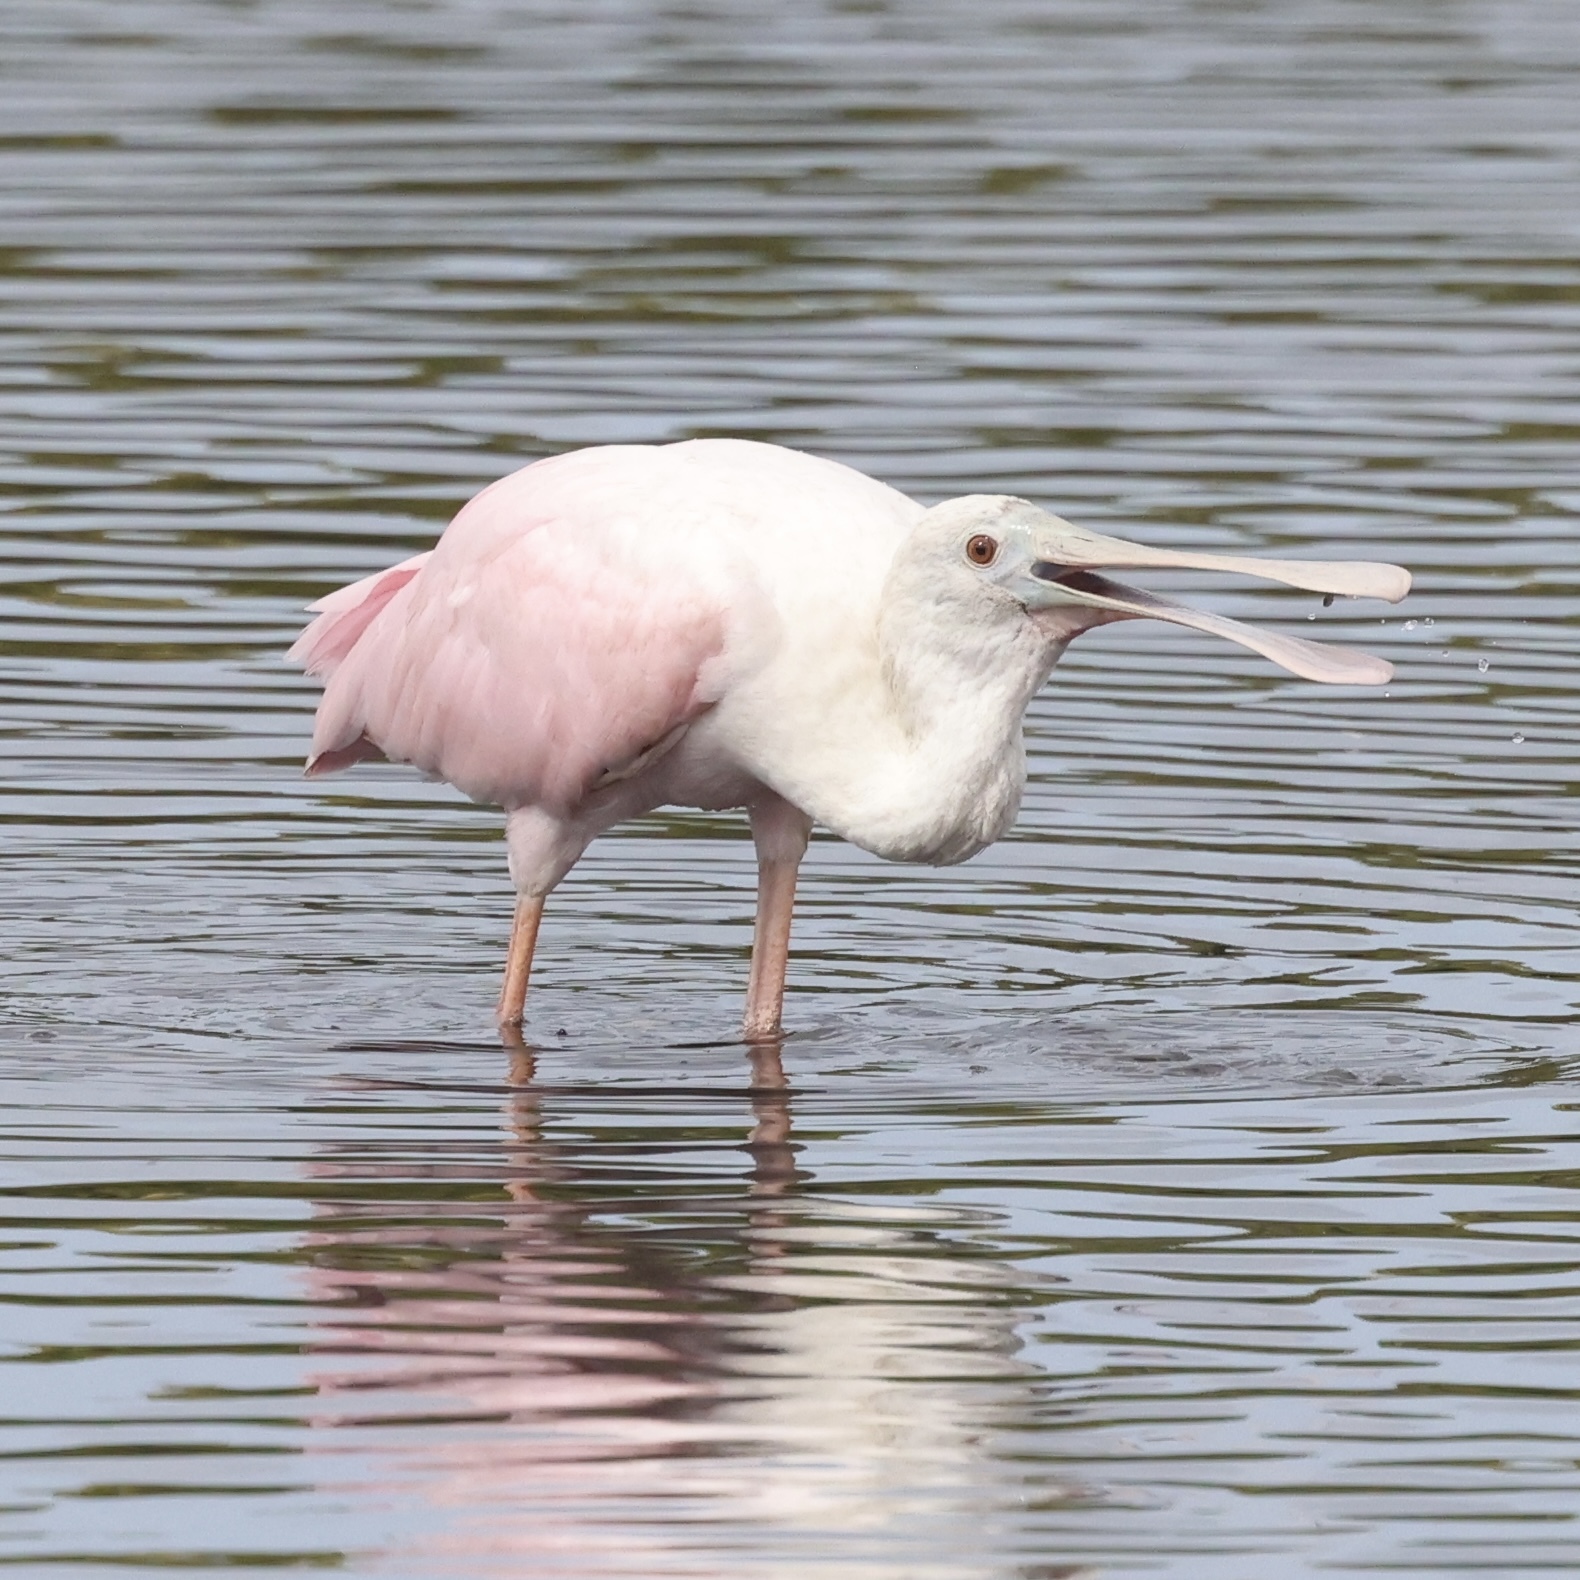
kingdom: Animalia
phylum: Chordata
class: Aves
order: Pelecaniformes
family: Threskiornithidae
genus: Platalea
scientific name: Platalea ajaja
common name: Roseate spoonbill
